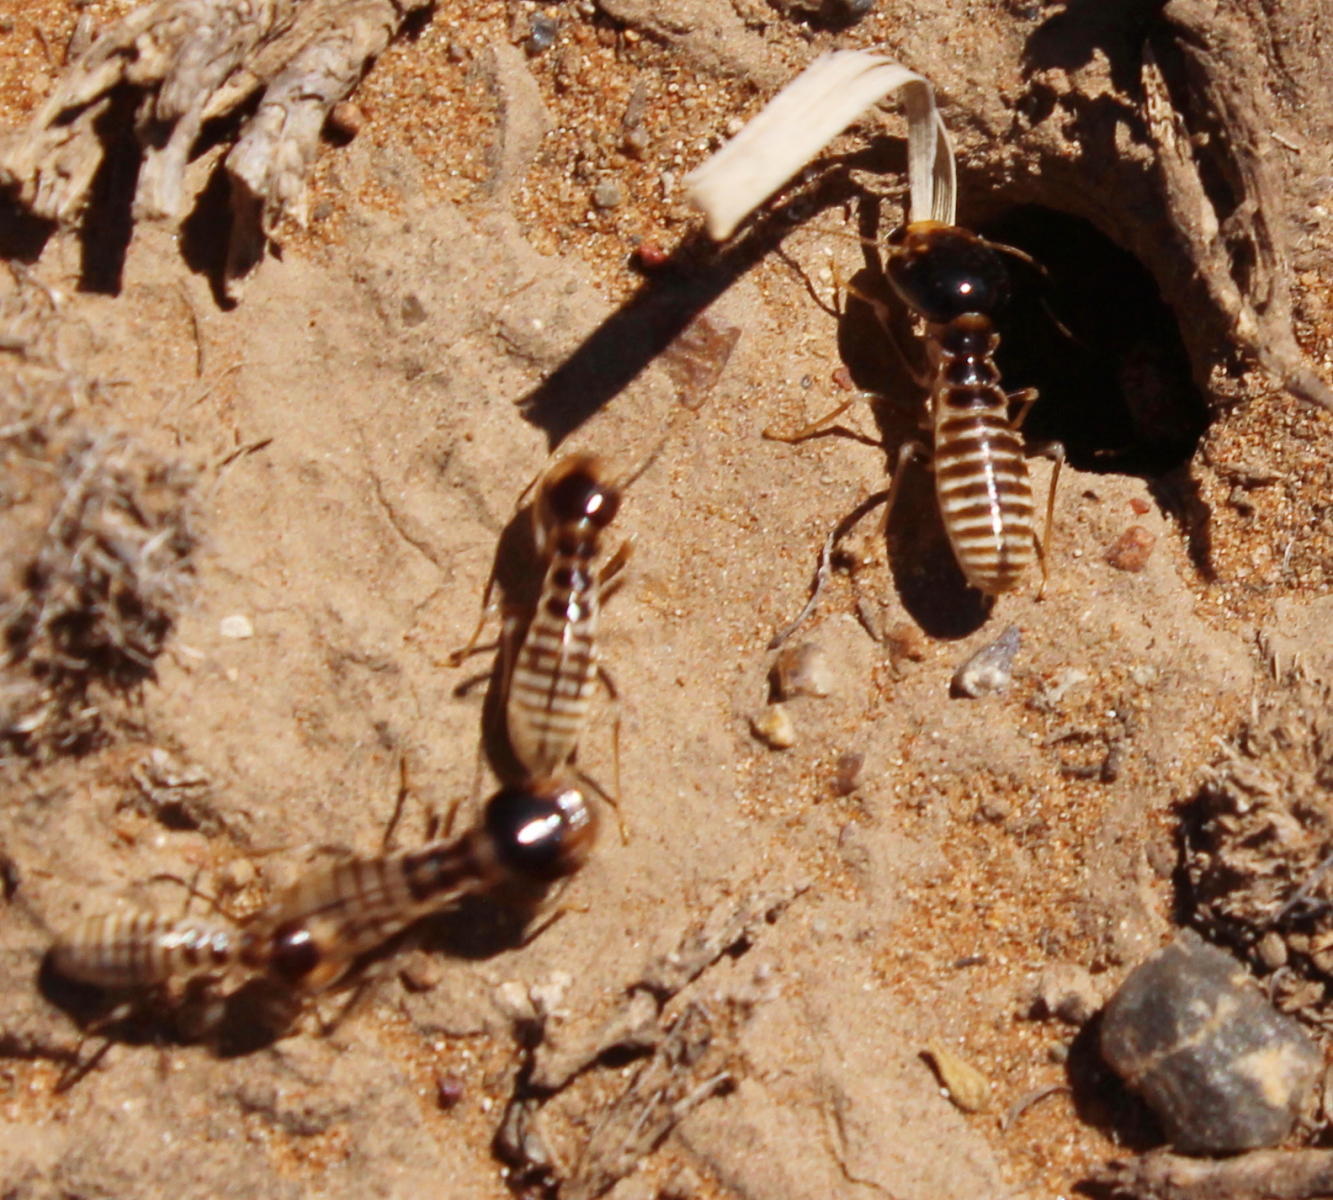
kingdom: Animalia
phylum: Arthropoda
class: Insecta
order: Blattodea
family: Hodotermitidae
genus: Hodotermes
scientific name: Hodotermes mossambicus
